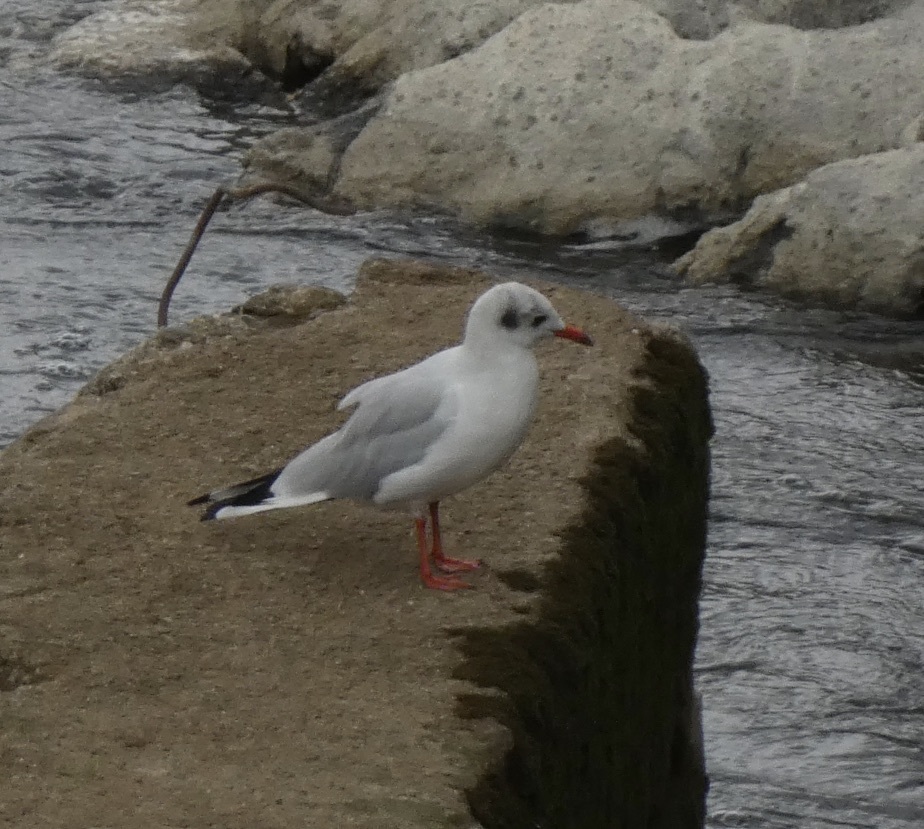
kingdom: Animalia
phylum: Chordata
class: Aves
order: Charadriiformes
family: Laridae
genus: Chroicocephalus
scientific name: Chroicocephalus ridibundus
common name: Black-headed gull
